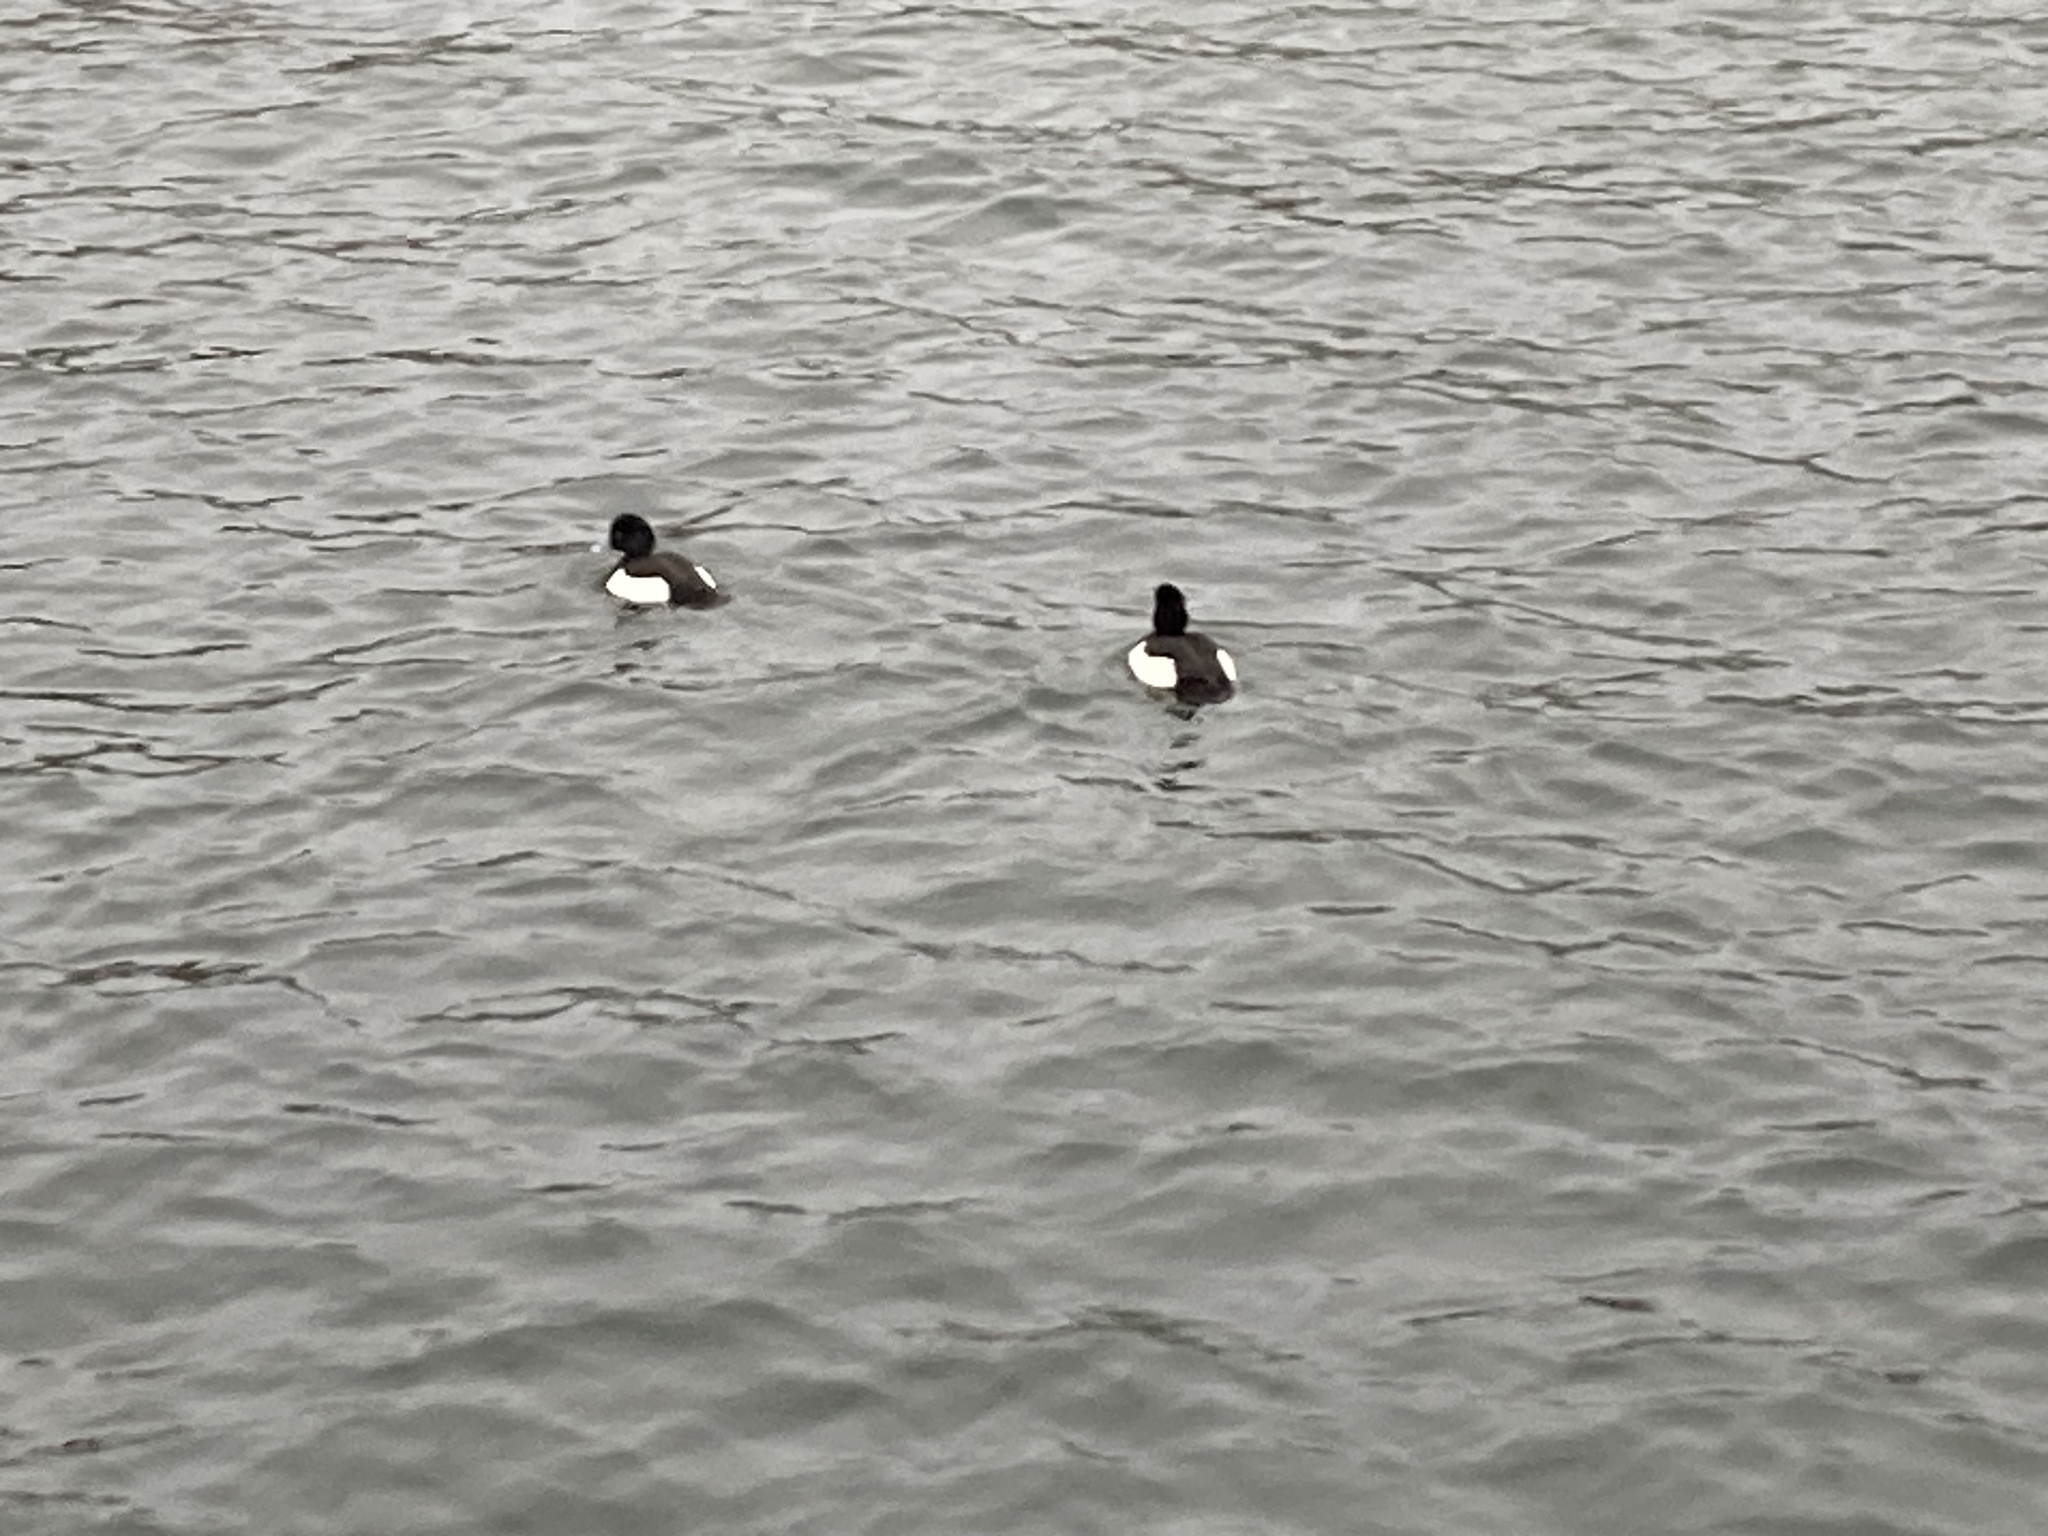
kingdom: Animalia
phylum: Chordata
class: Aves
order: Anseriformes
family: Anatidae
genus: Aythya
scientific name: Aythya fuligula
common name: Tufted duck
